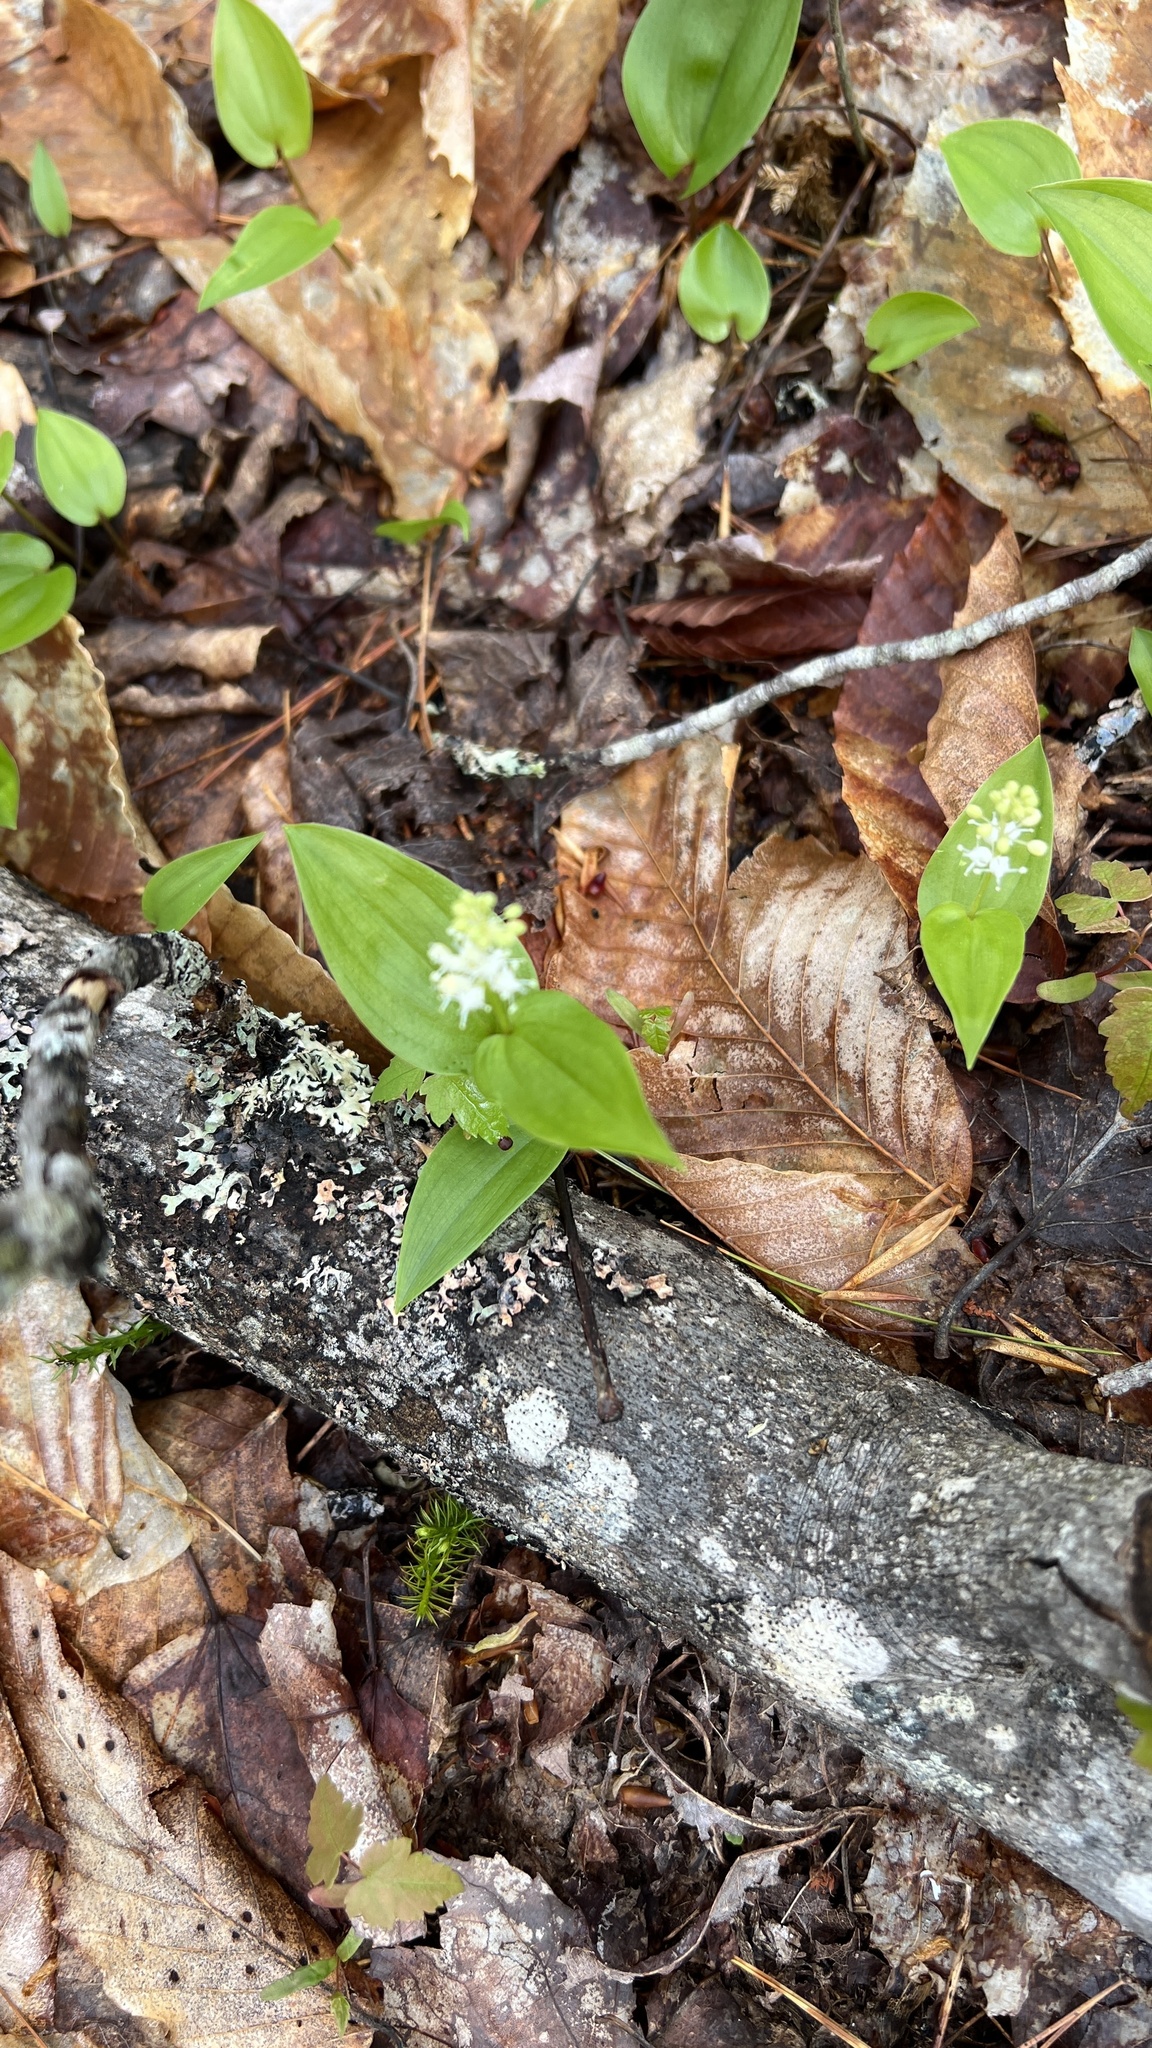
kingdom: Plantae
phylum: Tracheophyta
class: Liliopsida
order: Asparagales
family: Asparagaceae
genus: Maianthemum
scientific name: Maianthemum canadense
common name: False lily-of-the-valley
